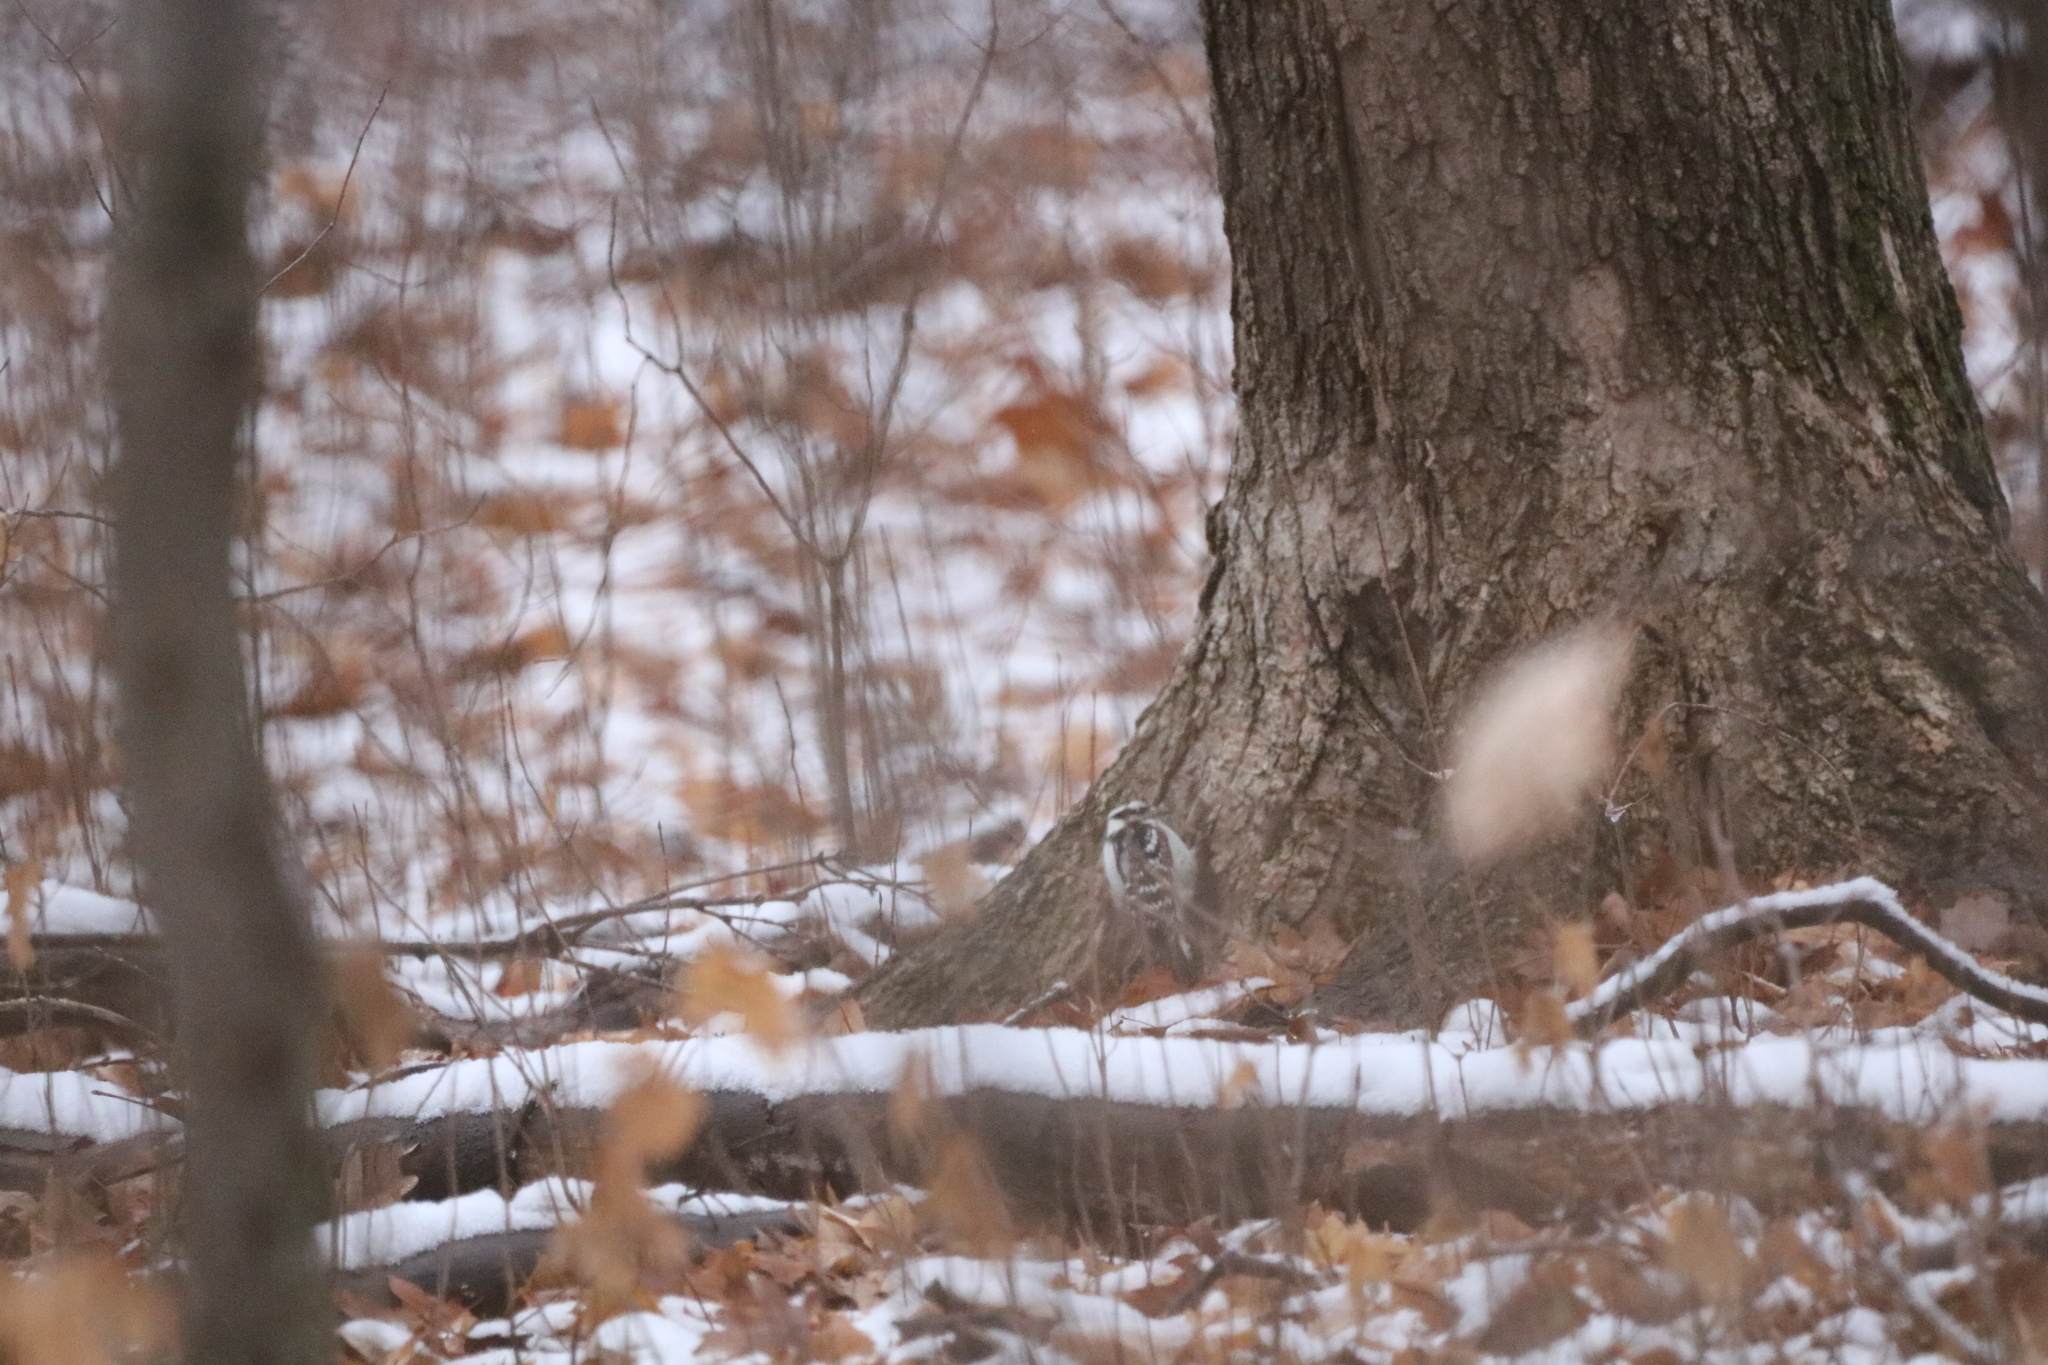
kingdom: Animalia
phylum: Chordata
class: Aves
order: Piciformes
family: Picidae
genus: Dryobates
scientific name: Dryobates pubescens
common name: Downy woodpecker
